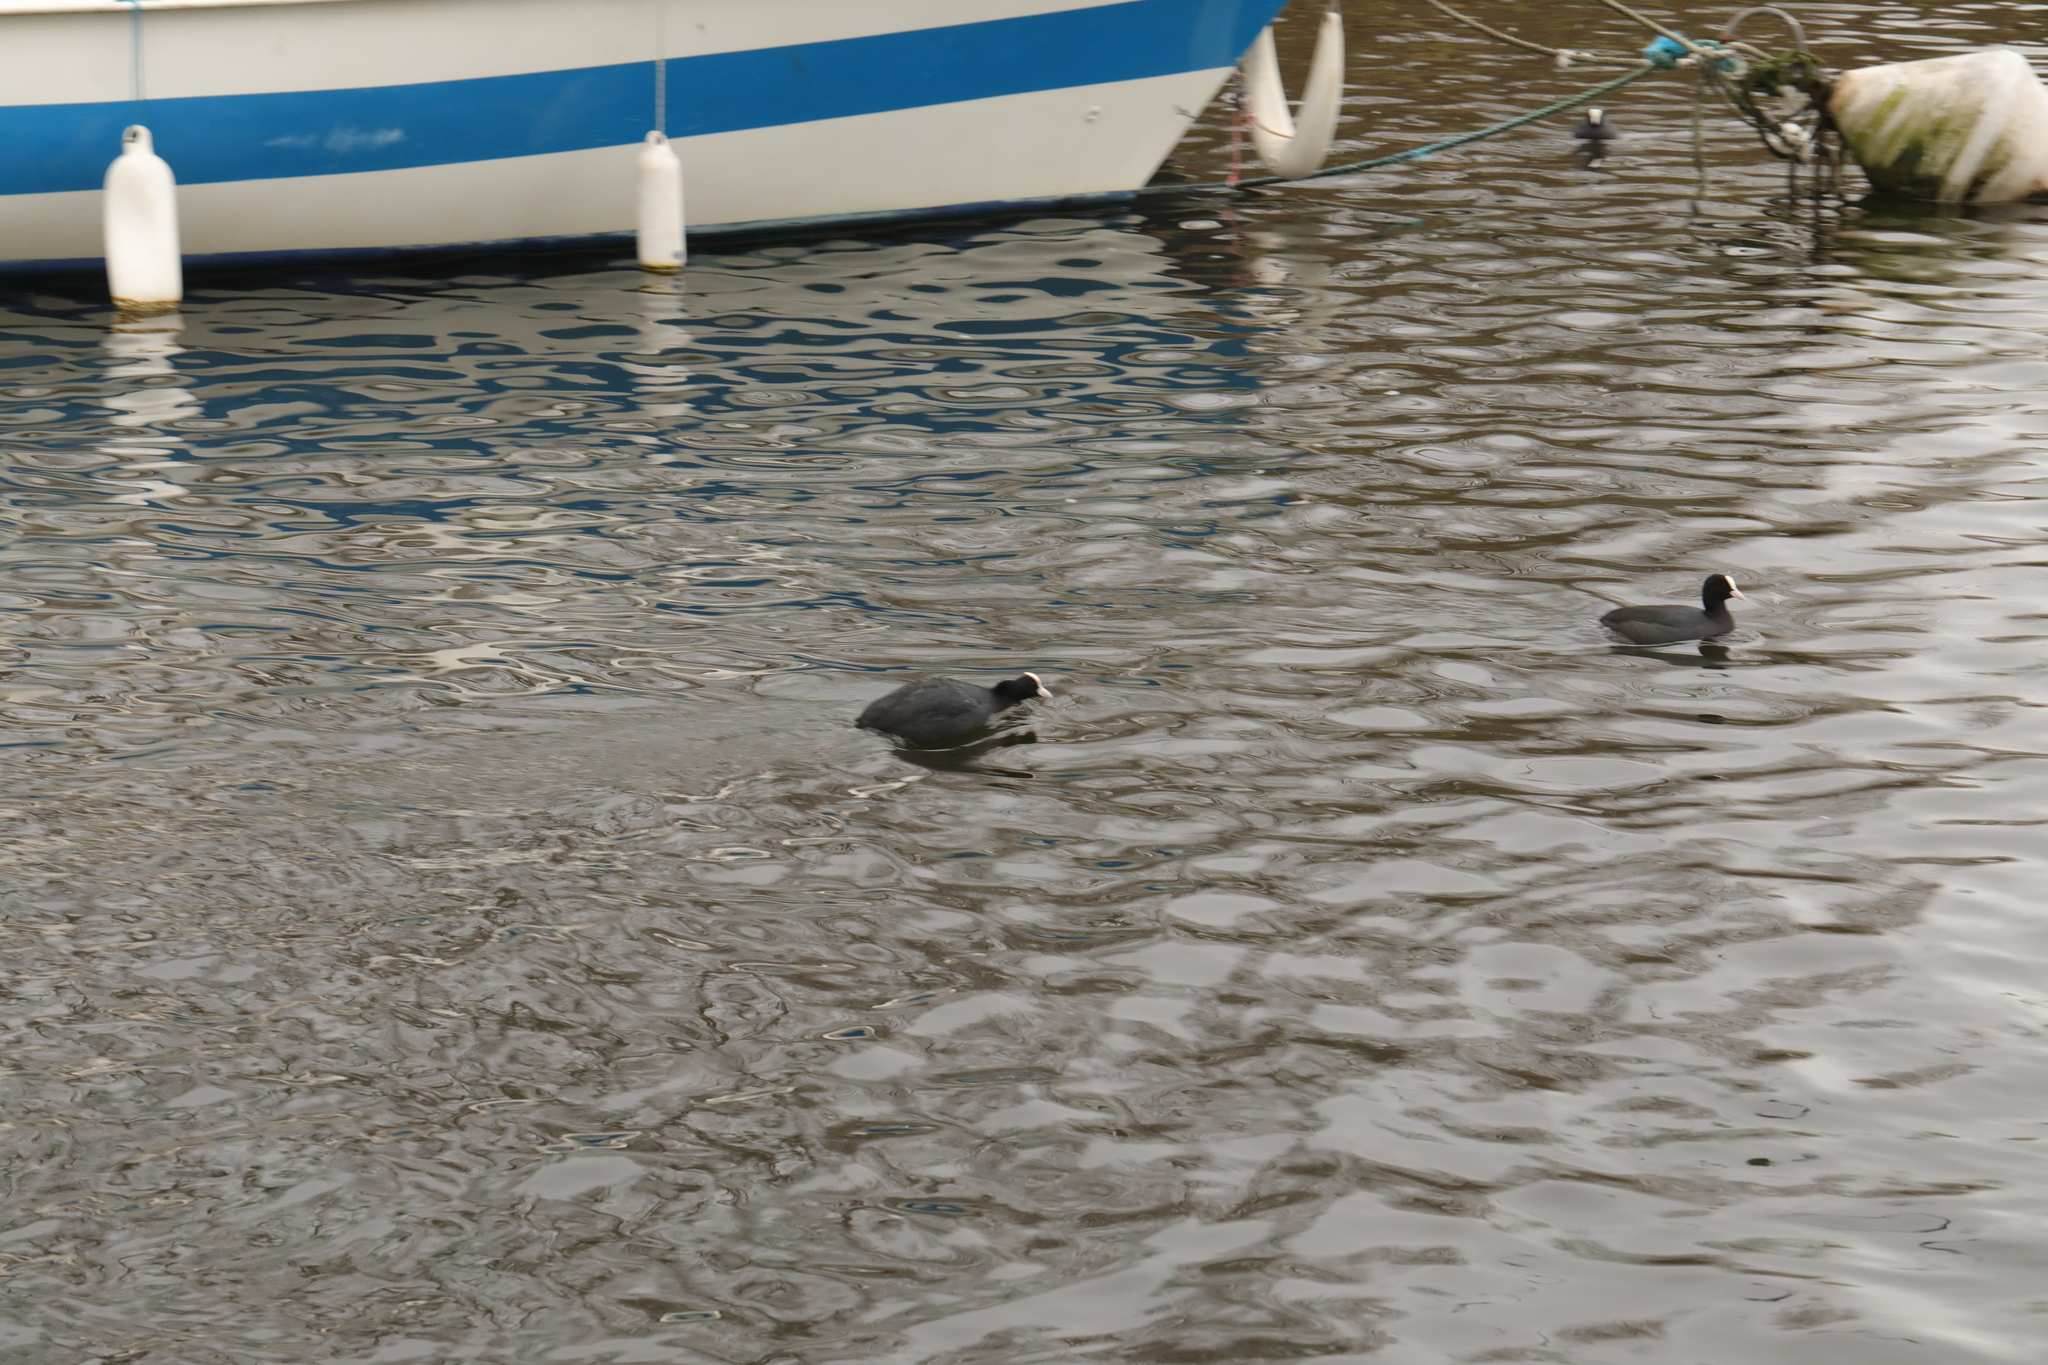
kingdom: Animalia
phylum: Chordata
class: Aves
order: Gruiformes
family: Rallidae
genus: Fulica
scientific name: Fulica atra
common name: Eurasian coot
